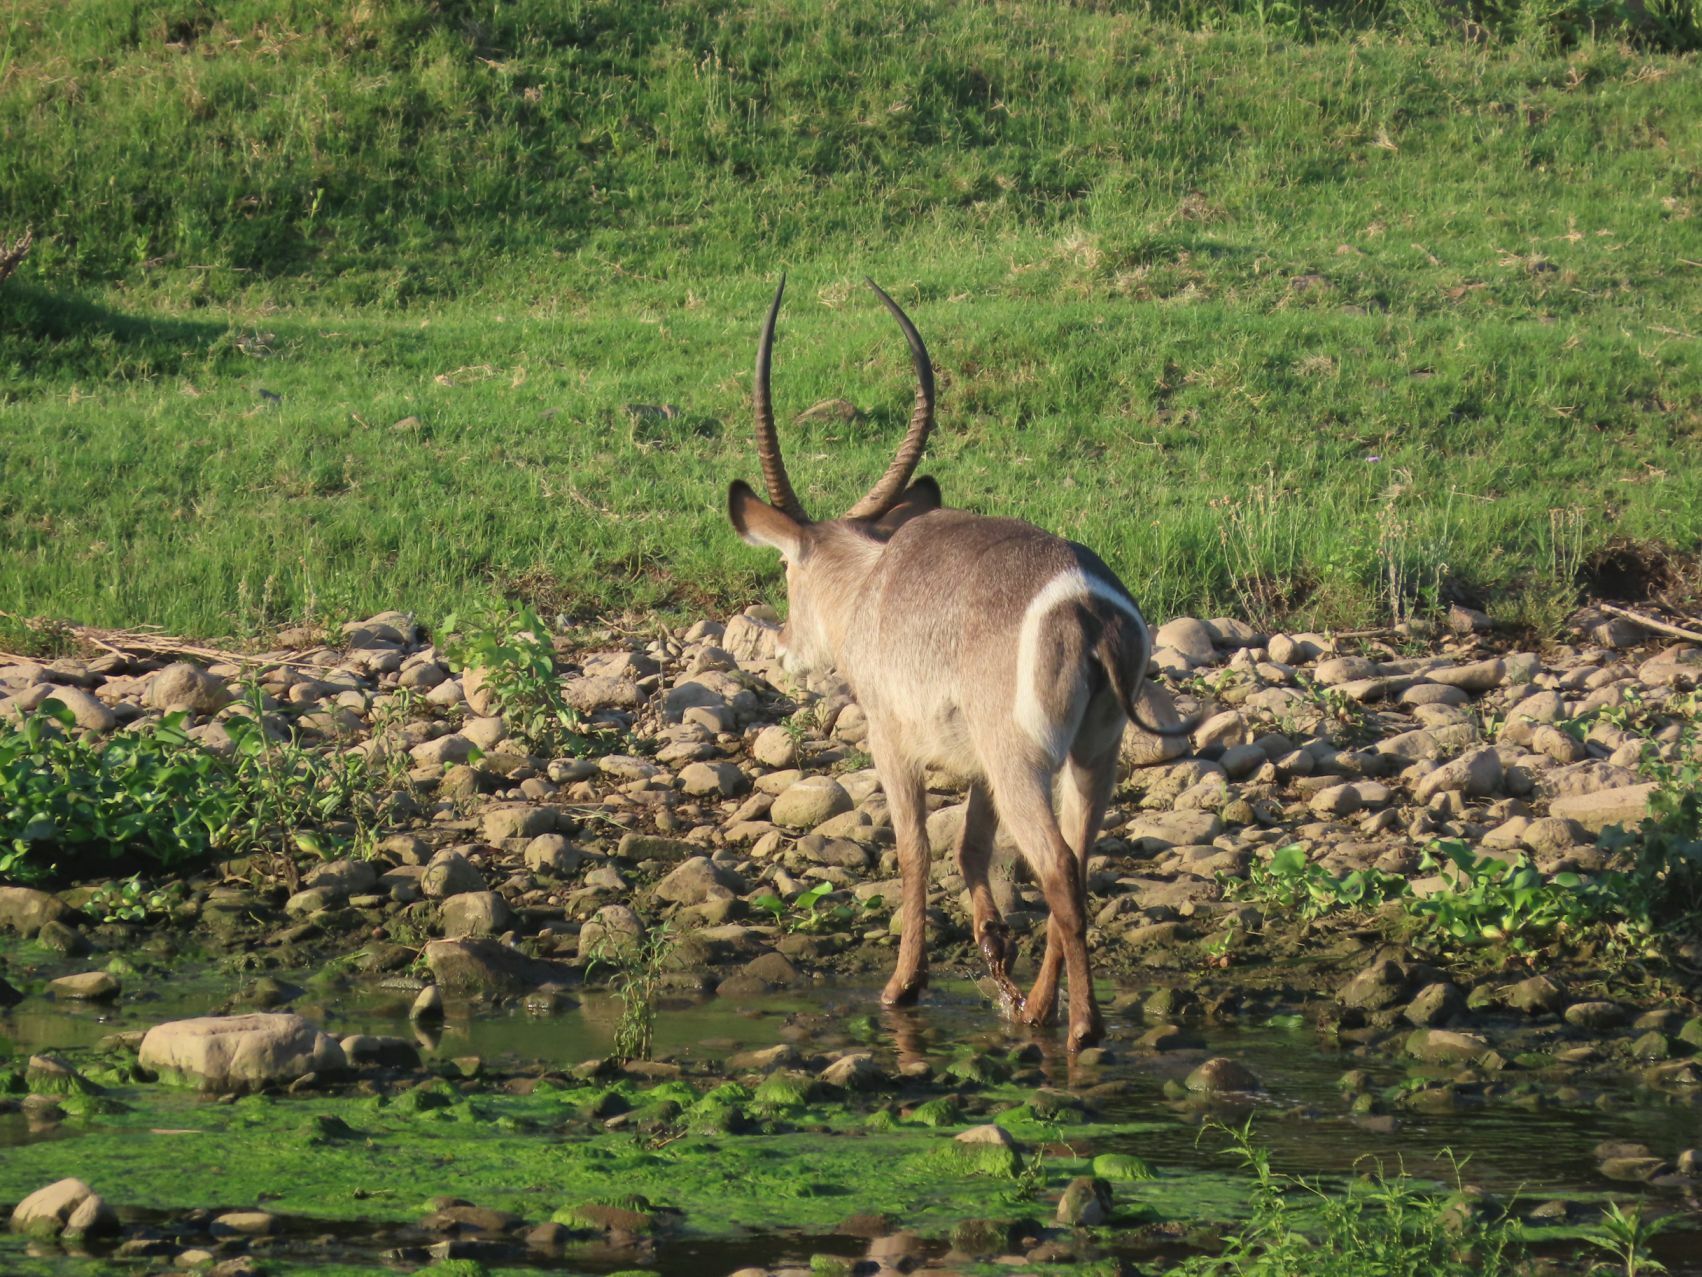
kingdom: Animalia
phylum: Chordata
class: Mammalia
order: Artiodactyla
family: Bovidae
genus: Kobus
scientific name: Kobus ellipsiprymnus
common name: Waterbuck
